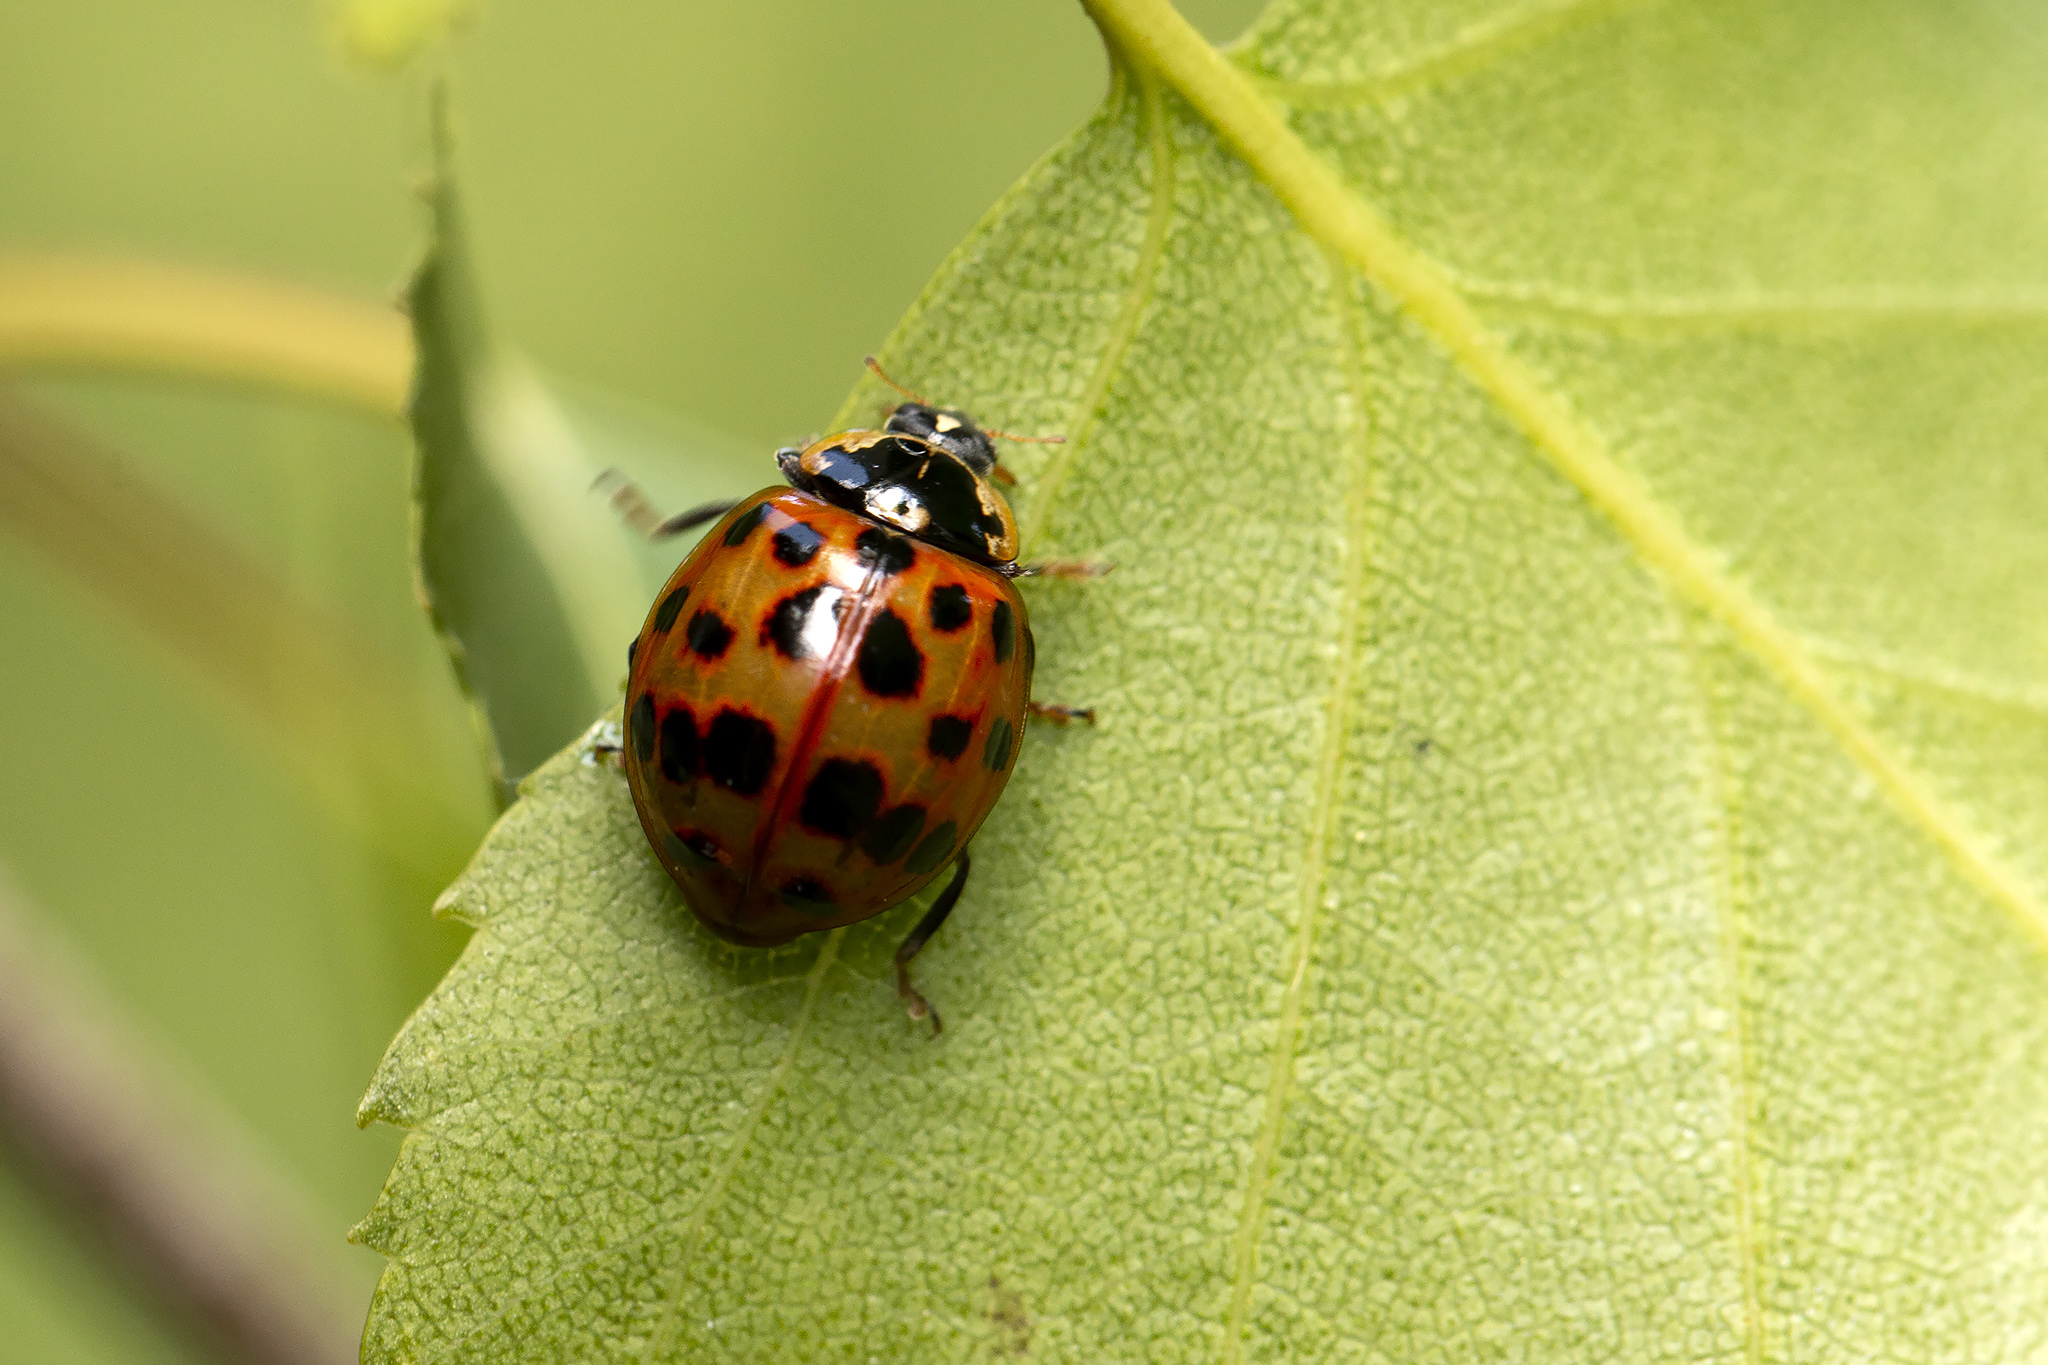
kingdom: Animalia
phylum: Arthropoda
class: Insecta
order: Coleoptera
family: Coccinellidae
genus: Harmonia
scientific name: Harmonia axyridis
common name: Harlequin ladybird
